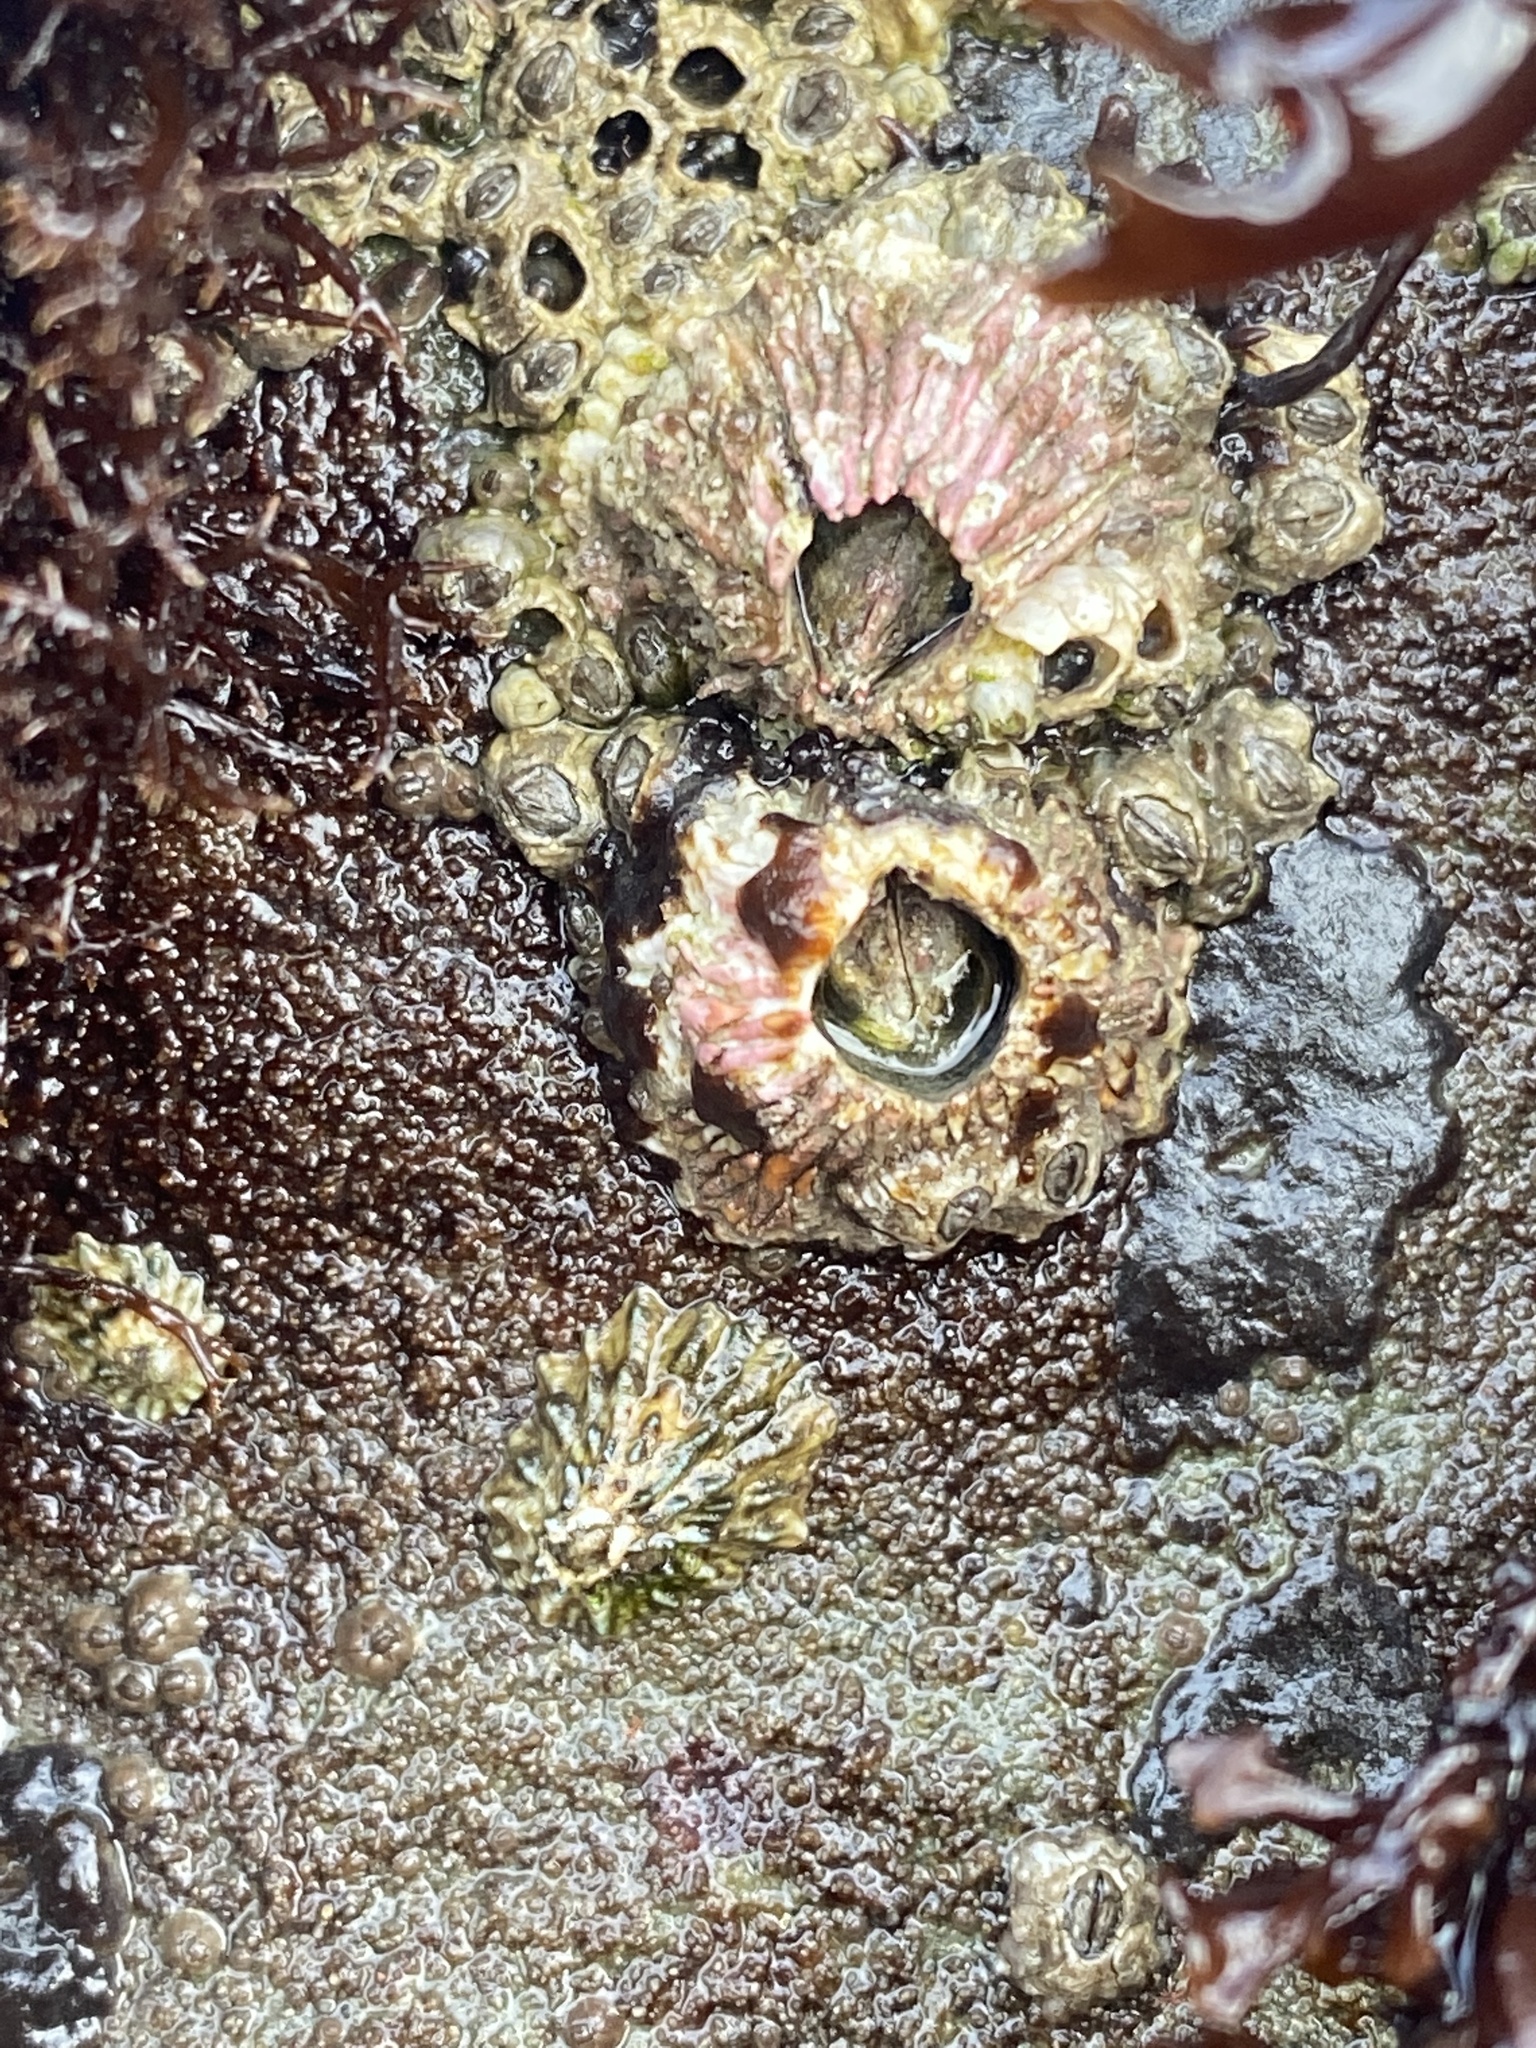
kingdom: Animalia
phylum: Arthropoda
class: Maxillopoda
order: Sessilia
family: Tetraclitidae
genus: Tetraclita
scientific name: Tetraclita rubescens
